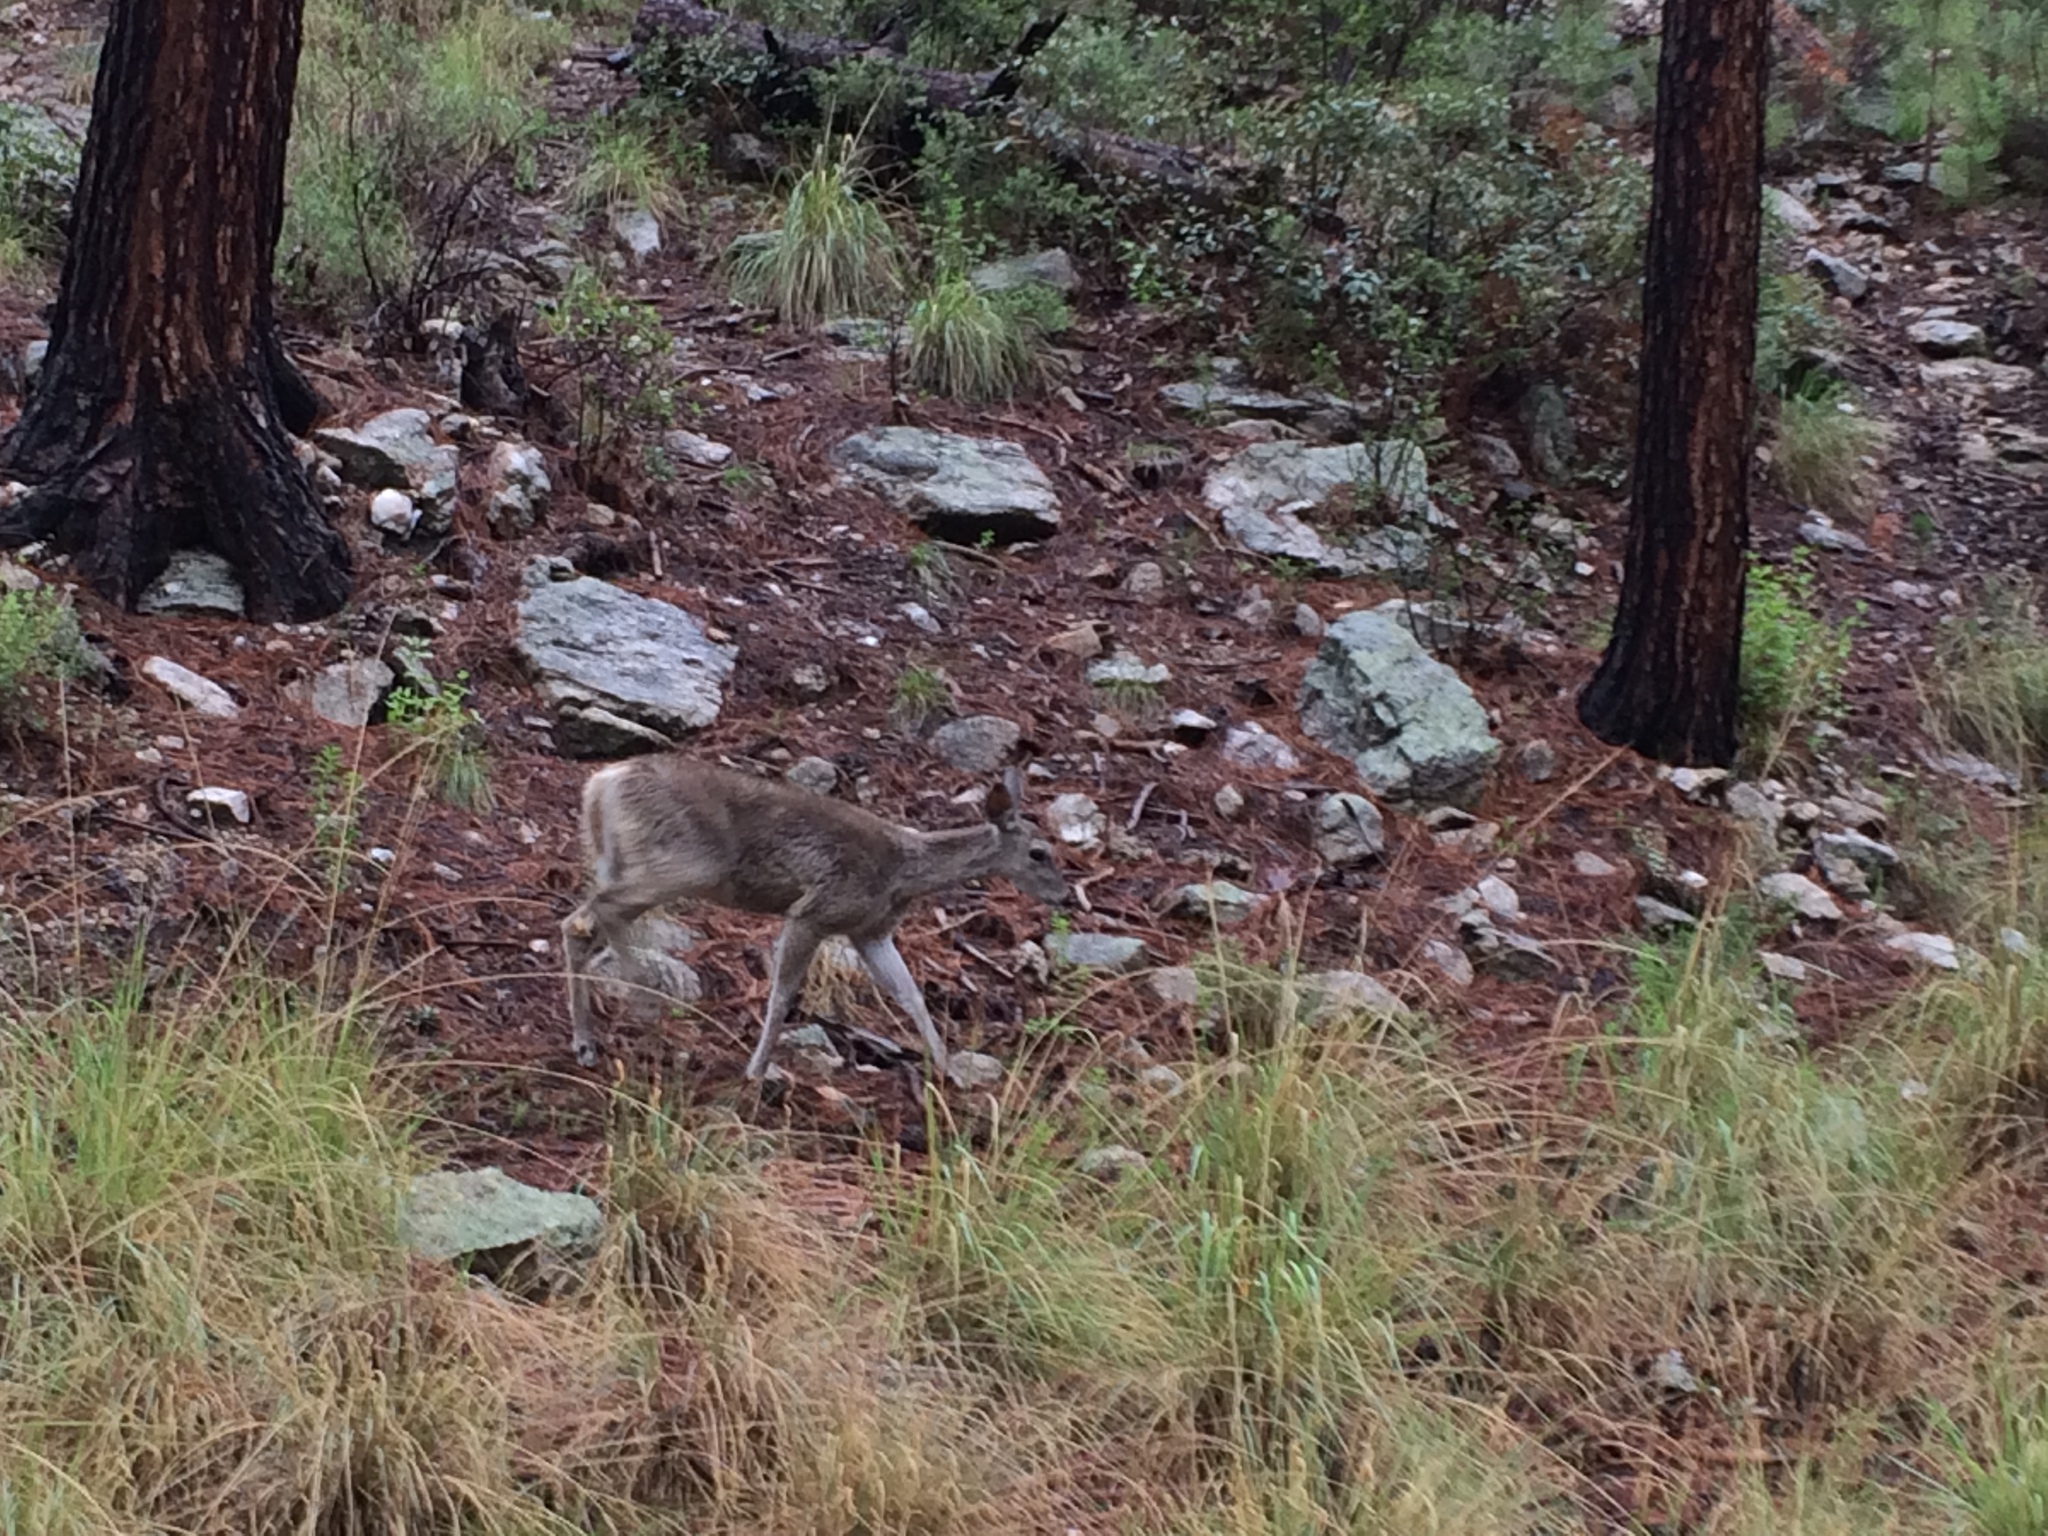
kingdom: Animalia
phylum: Chordata
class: Mammalia
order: Artiodactyla
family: Cervidae
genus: Odocoileus
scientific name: Odocoileus virginianus
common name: White-tailed deer
